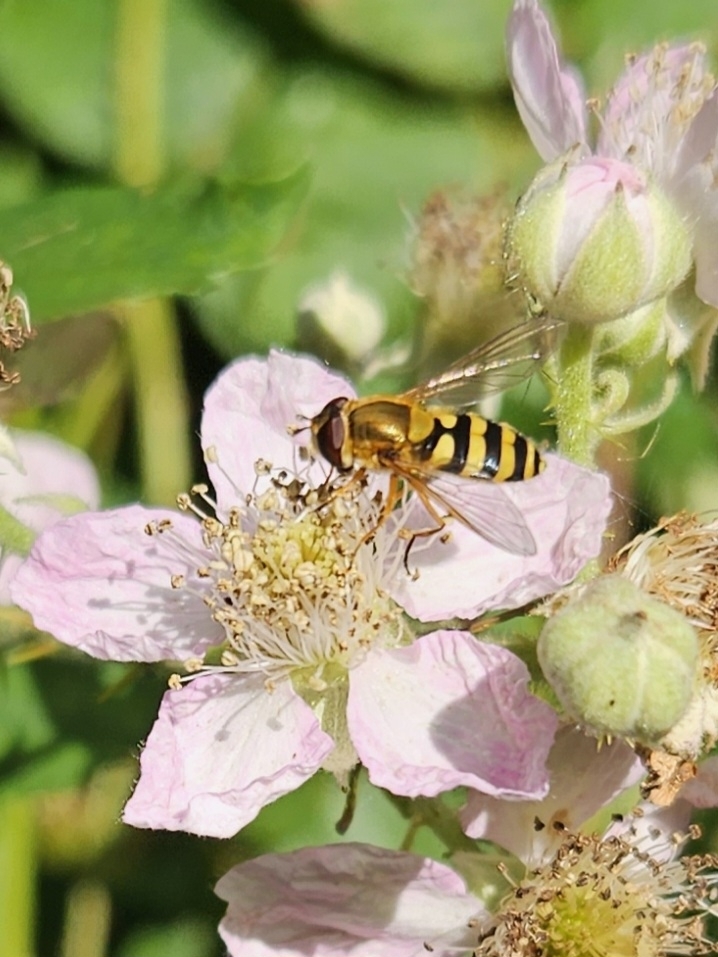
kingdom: Animalia
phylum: Arthropoda
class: Insecta
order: Diptera
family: Syrphidae
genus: Syrphus
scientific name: Syrphus ribesii
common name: Common flower fly
